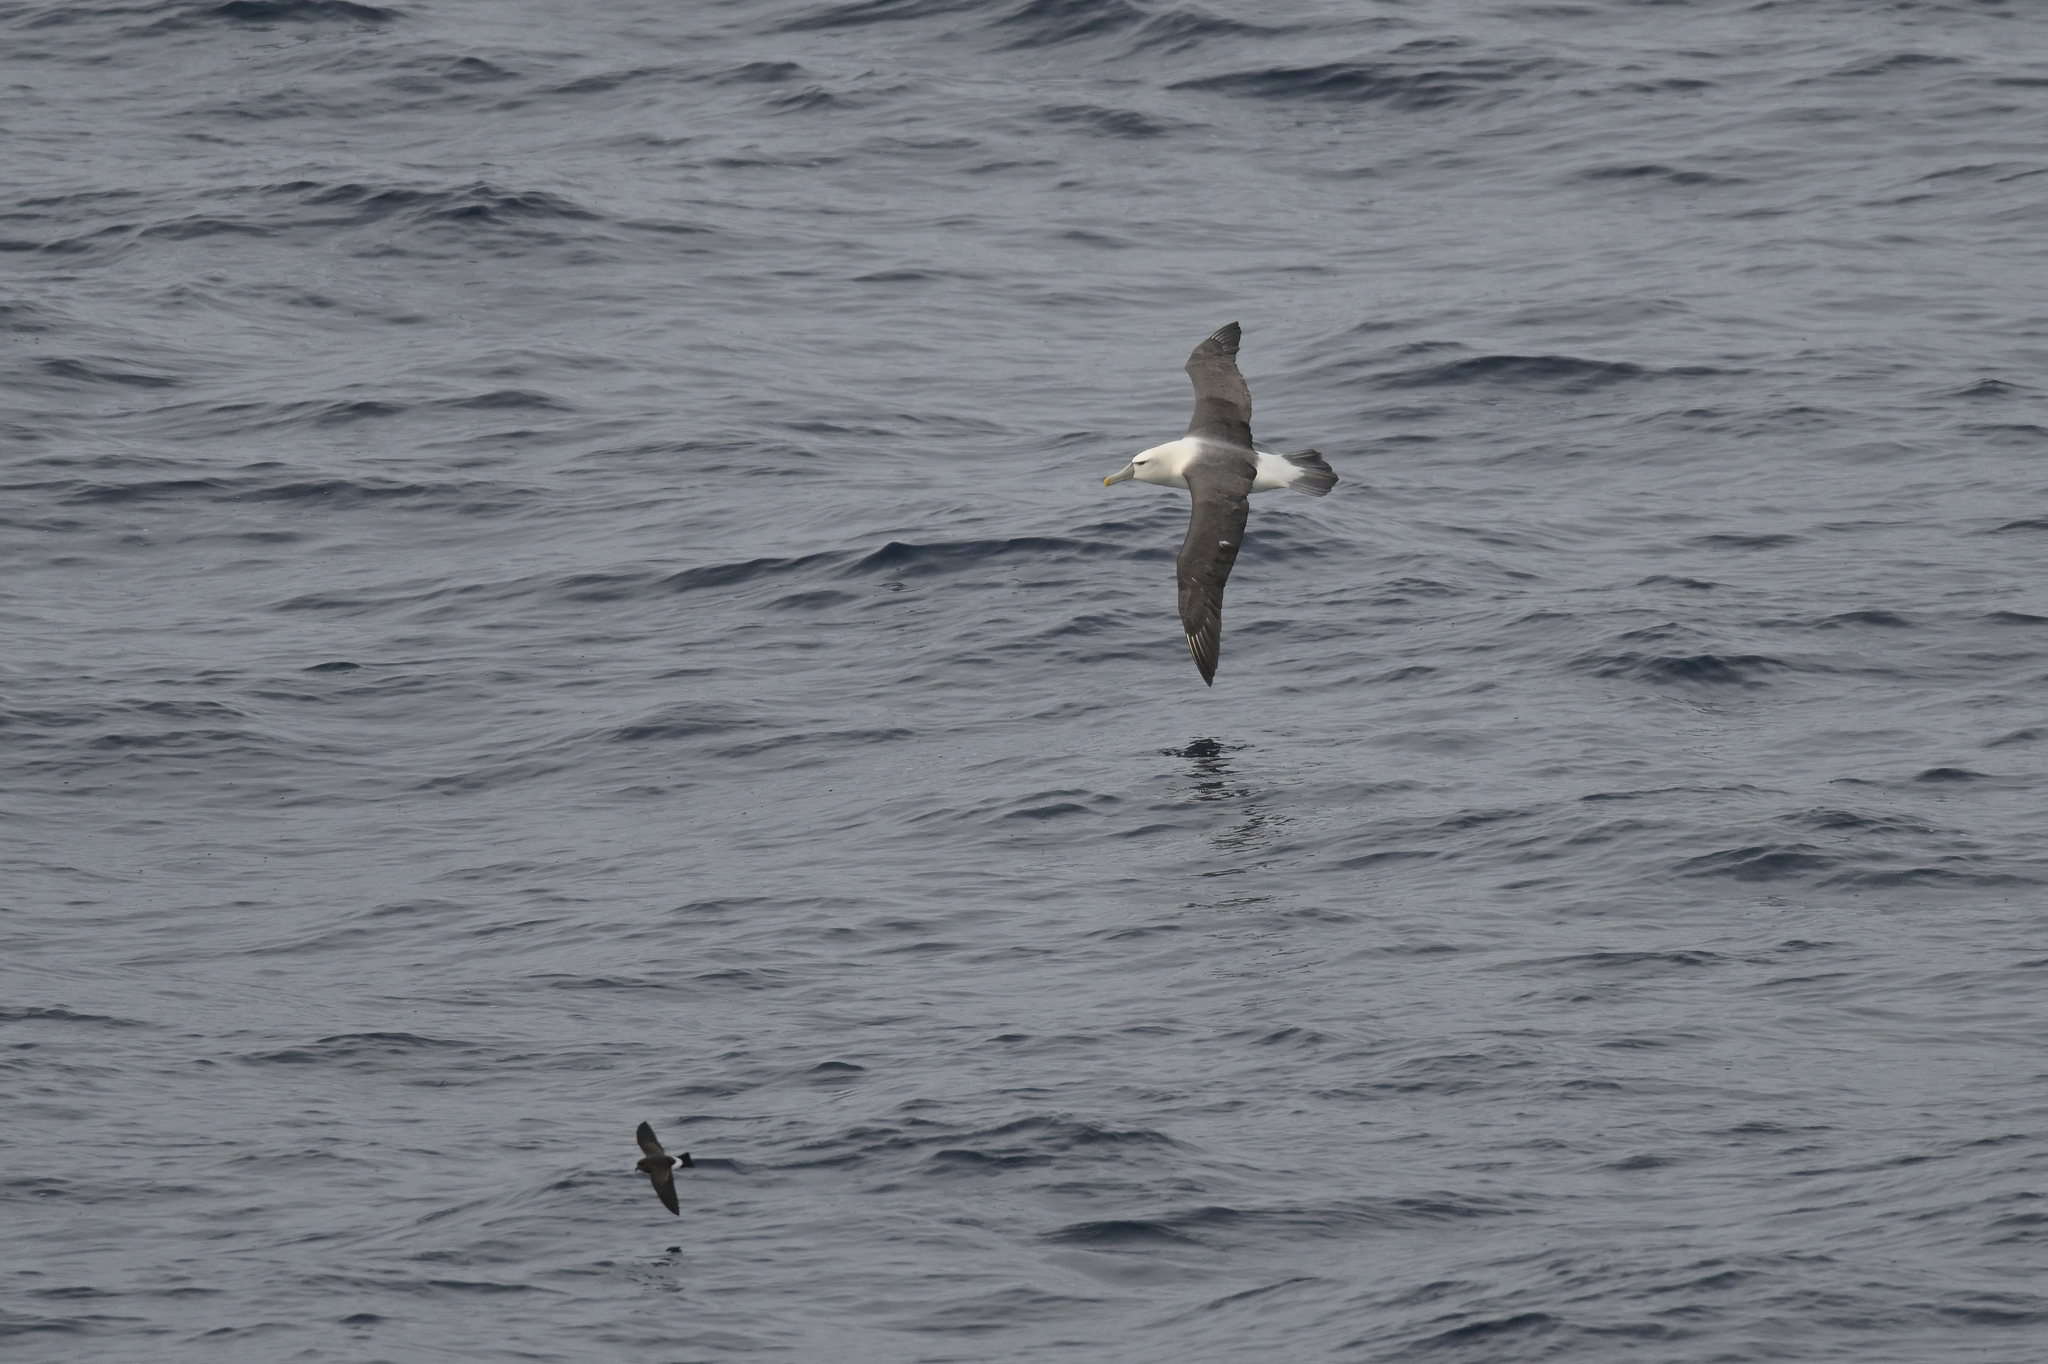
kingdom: Animalia
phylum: Chordata
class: Aves
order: Procellariiformes
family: Diomedeidae
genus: Thalassarche
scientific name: Thalassarche cauta
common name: Shy albatross
